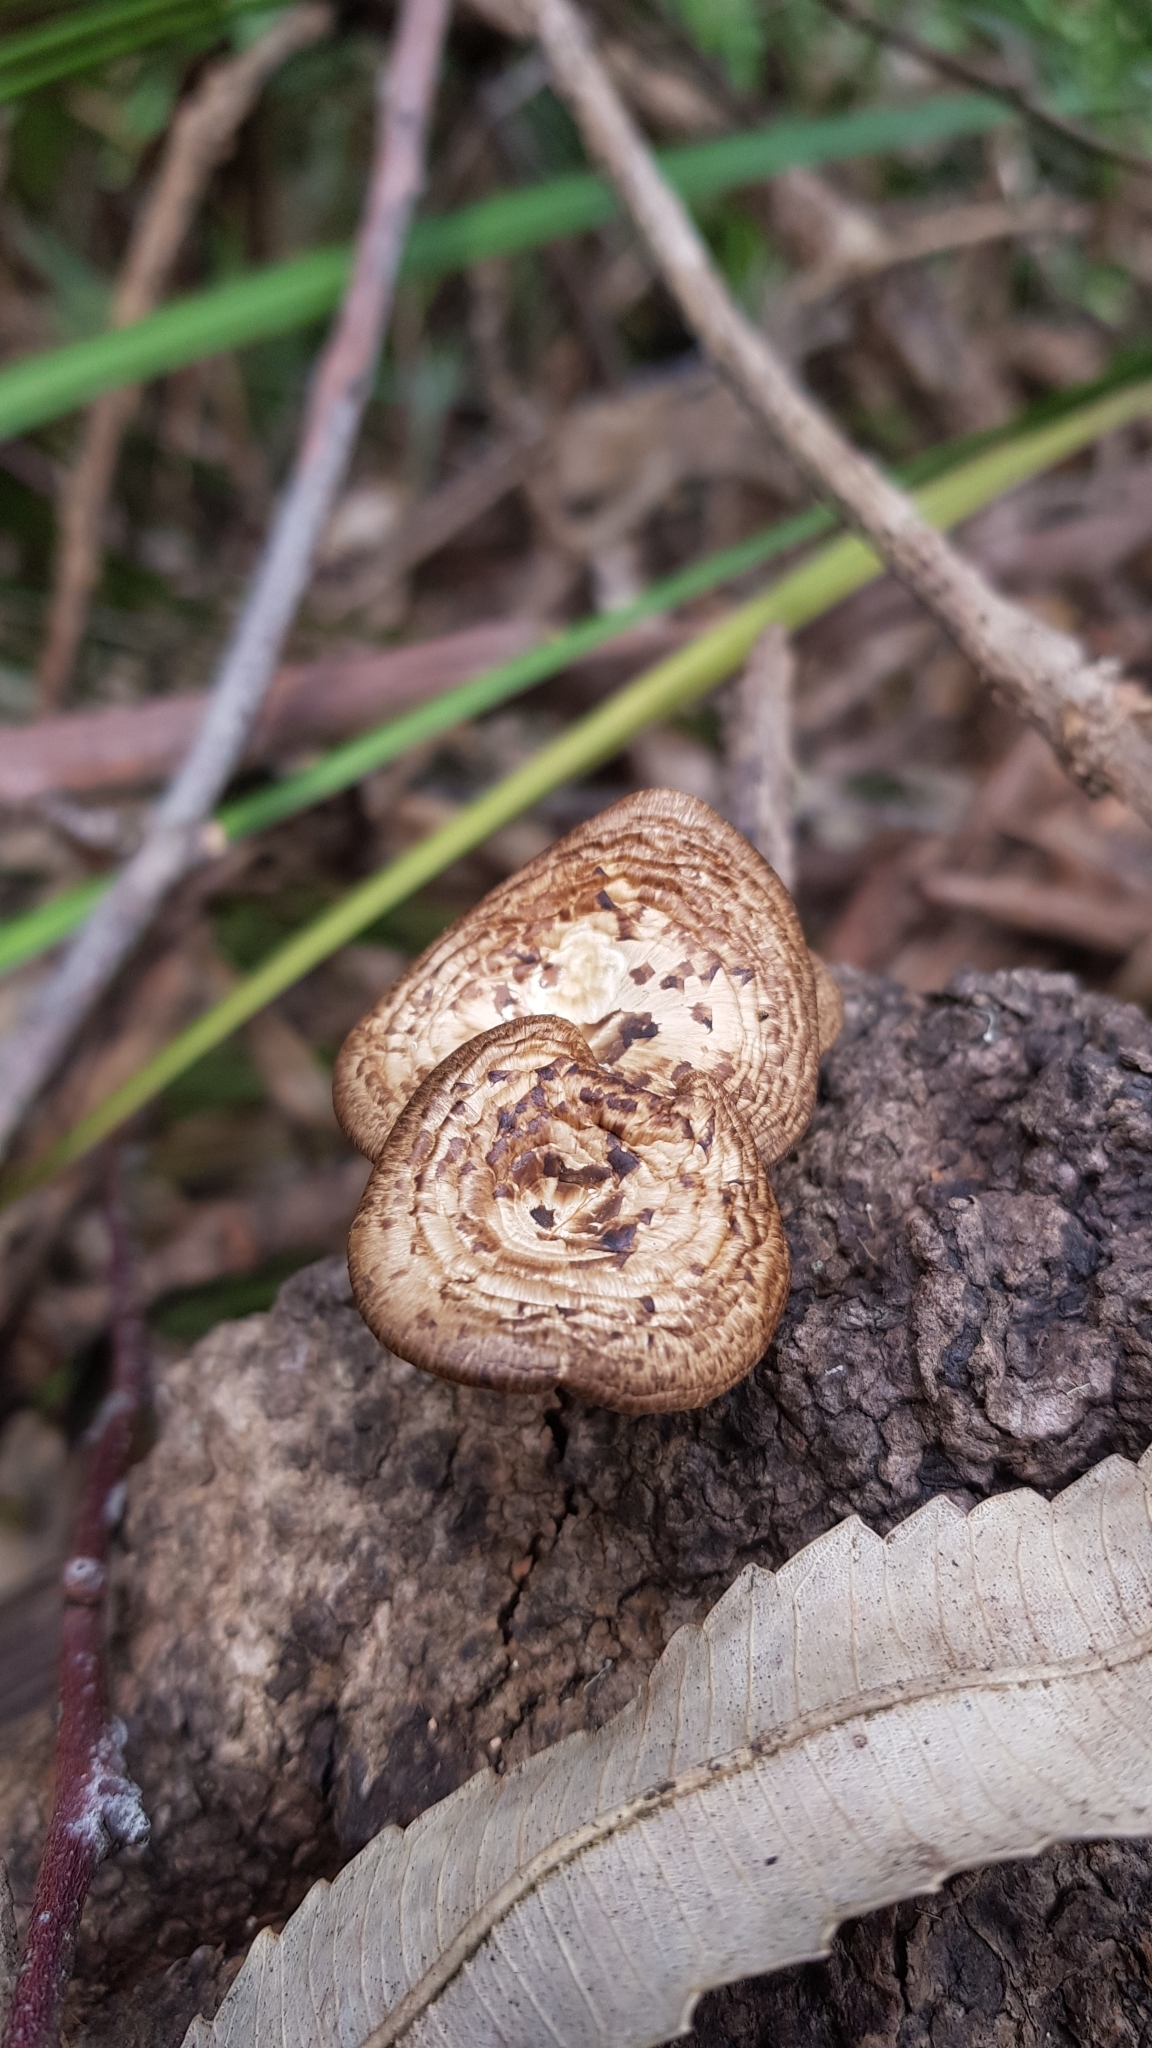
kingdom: Fungi
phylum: Basidiomycota
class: Agaricomycetes
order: Polyporales
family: Polyporaceae
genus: Lentinus
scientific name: Lentinus arcularius
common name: Spring polypore
